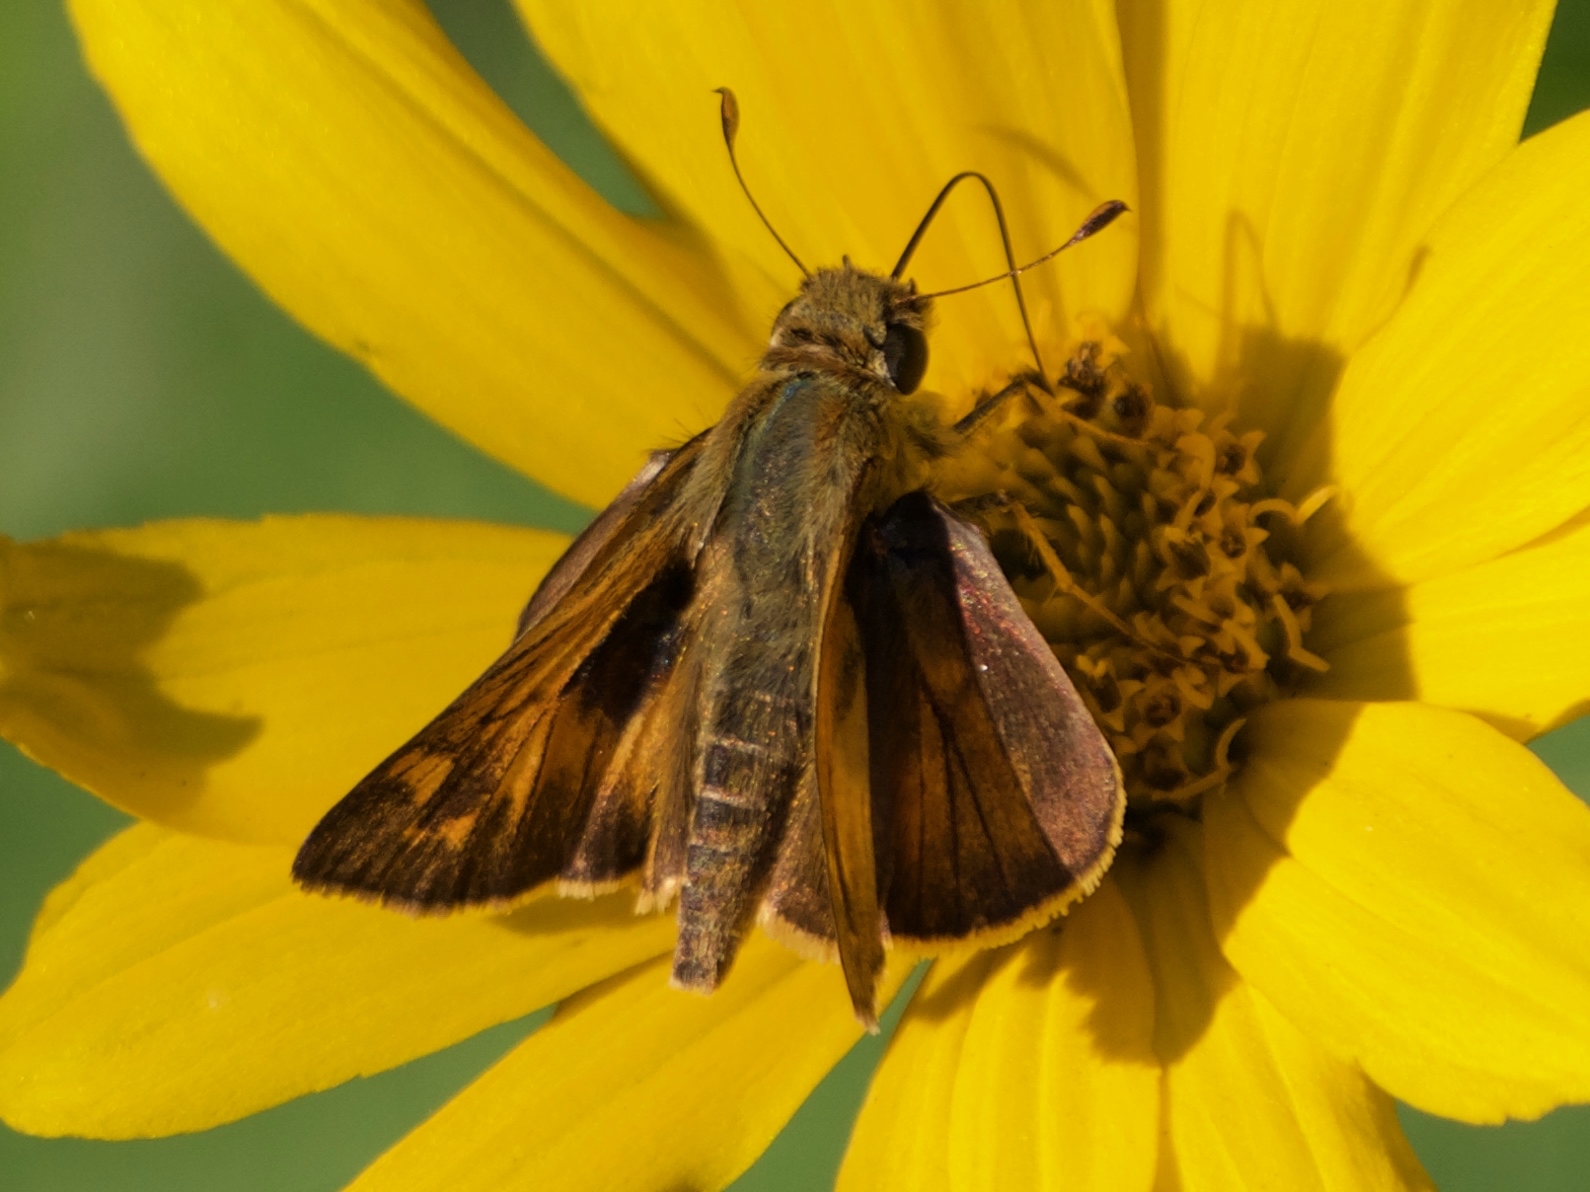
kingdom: Animalia
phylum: Arthropoda
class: Insecta
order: Lepidoptera
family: Hesperiidae
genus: Atalopedes
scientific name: Atalopedes
